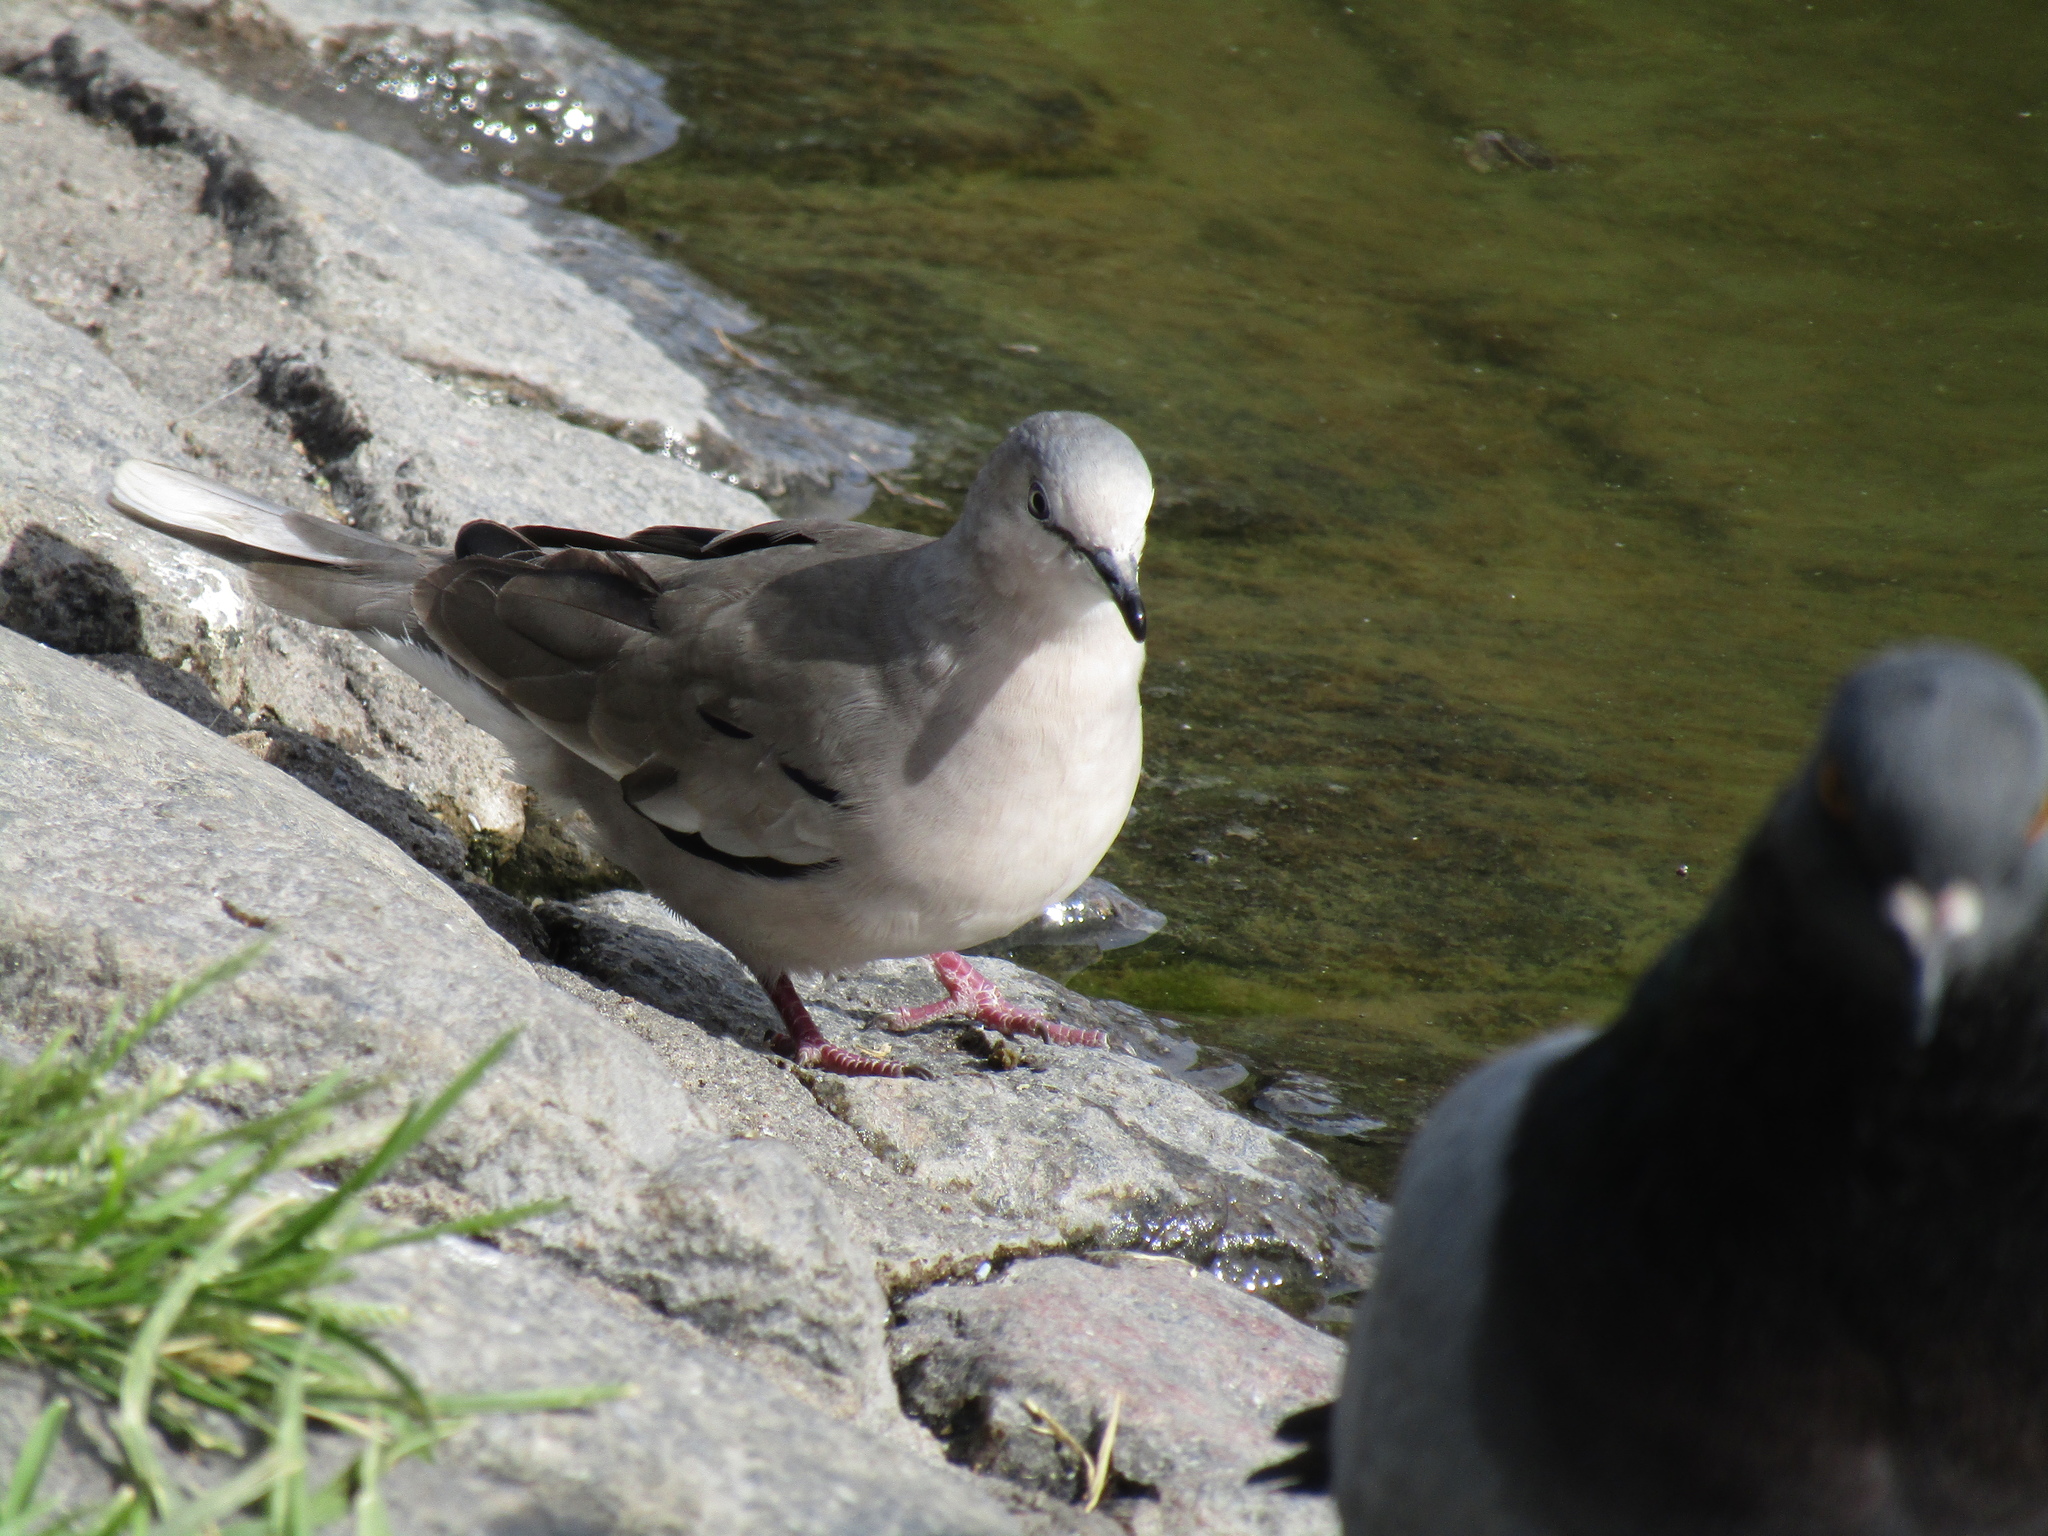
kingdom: Animalia
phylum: Chordata
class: Aves
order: Columbiformes
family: Columbidae
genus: Columbina
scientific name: Columbina picui
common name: Picui ground dove
